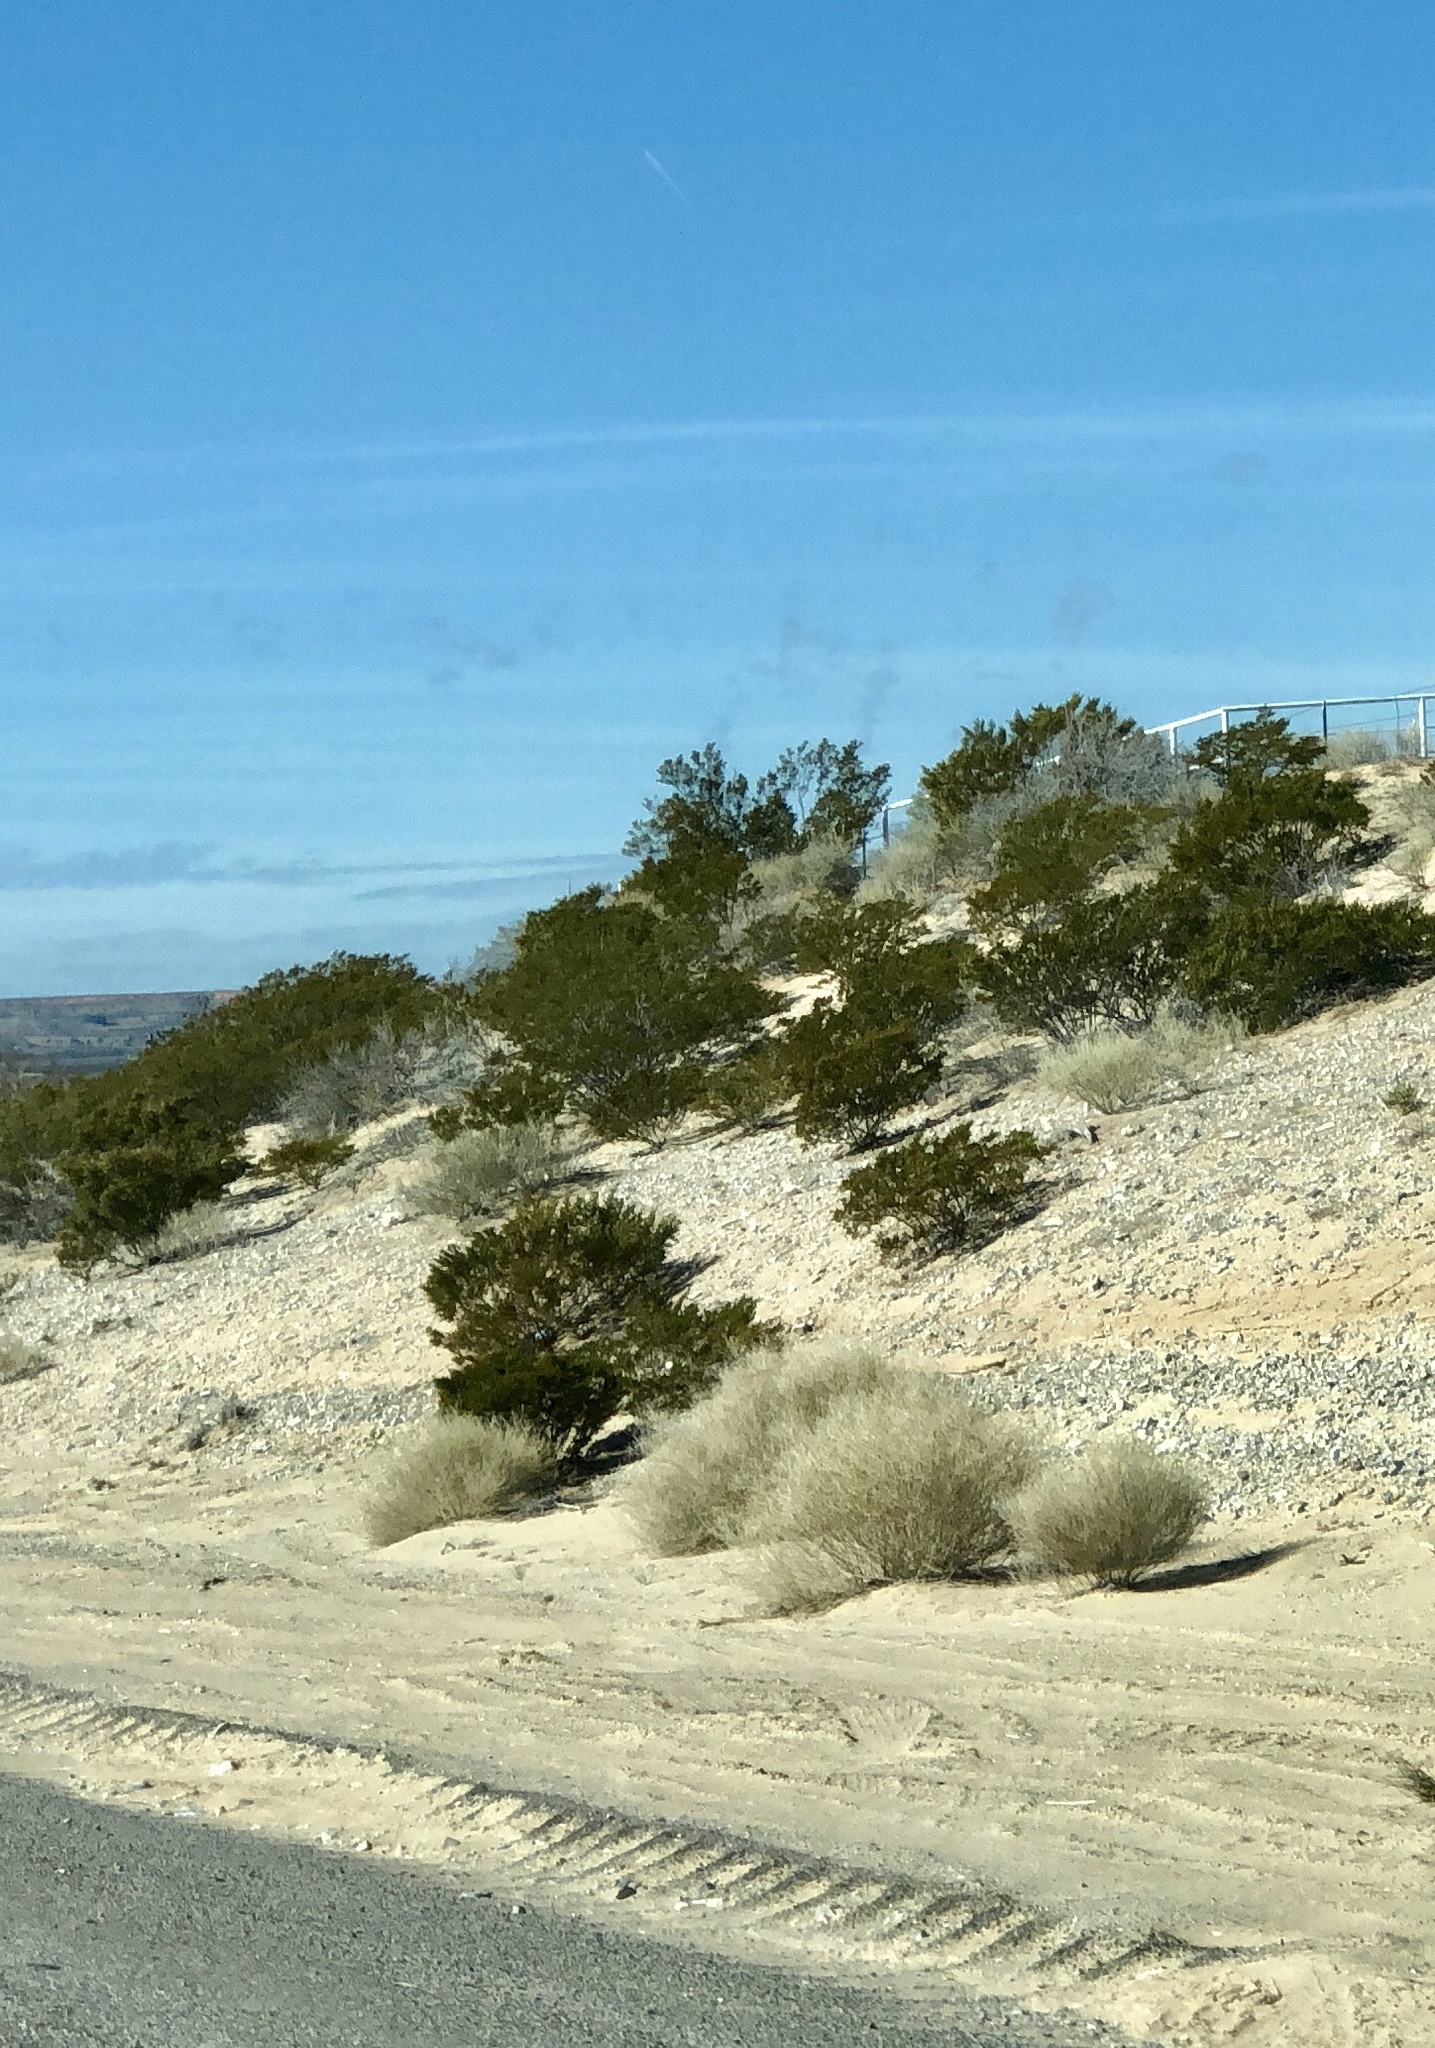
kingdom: Plantae
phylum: Tracheophyta
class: Magnoliopsida
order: Zygophyllales
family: Zygophyllaceae
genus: Larrea
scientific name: Larrea tridentata
